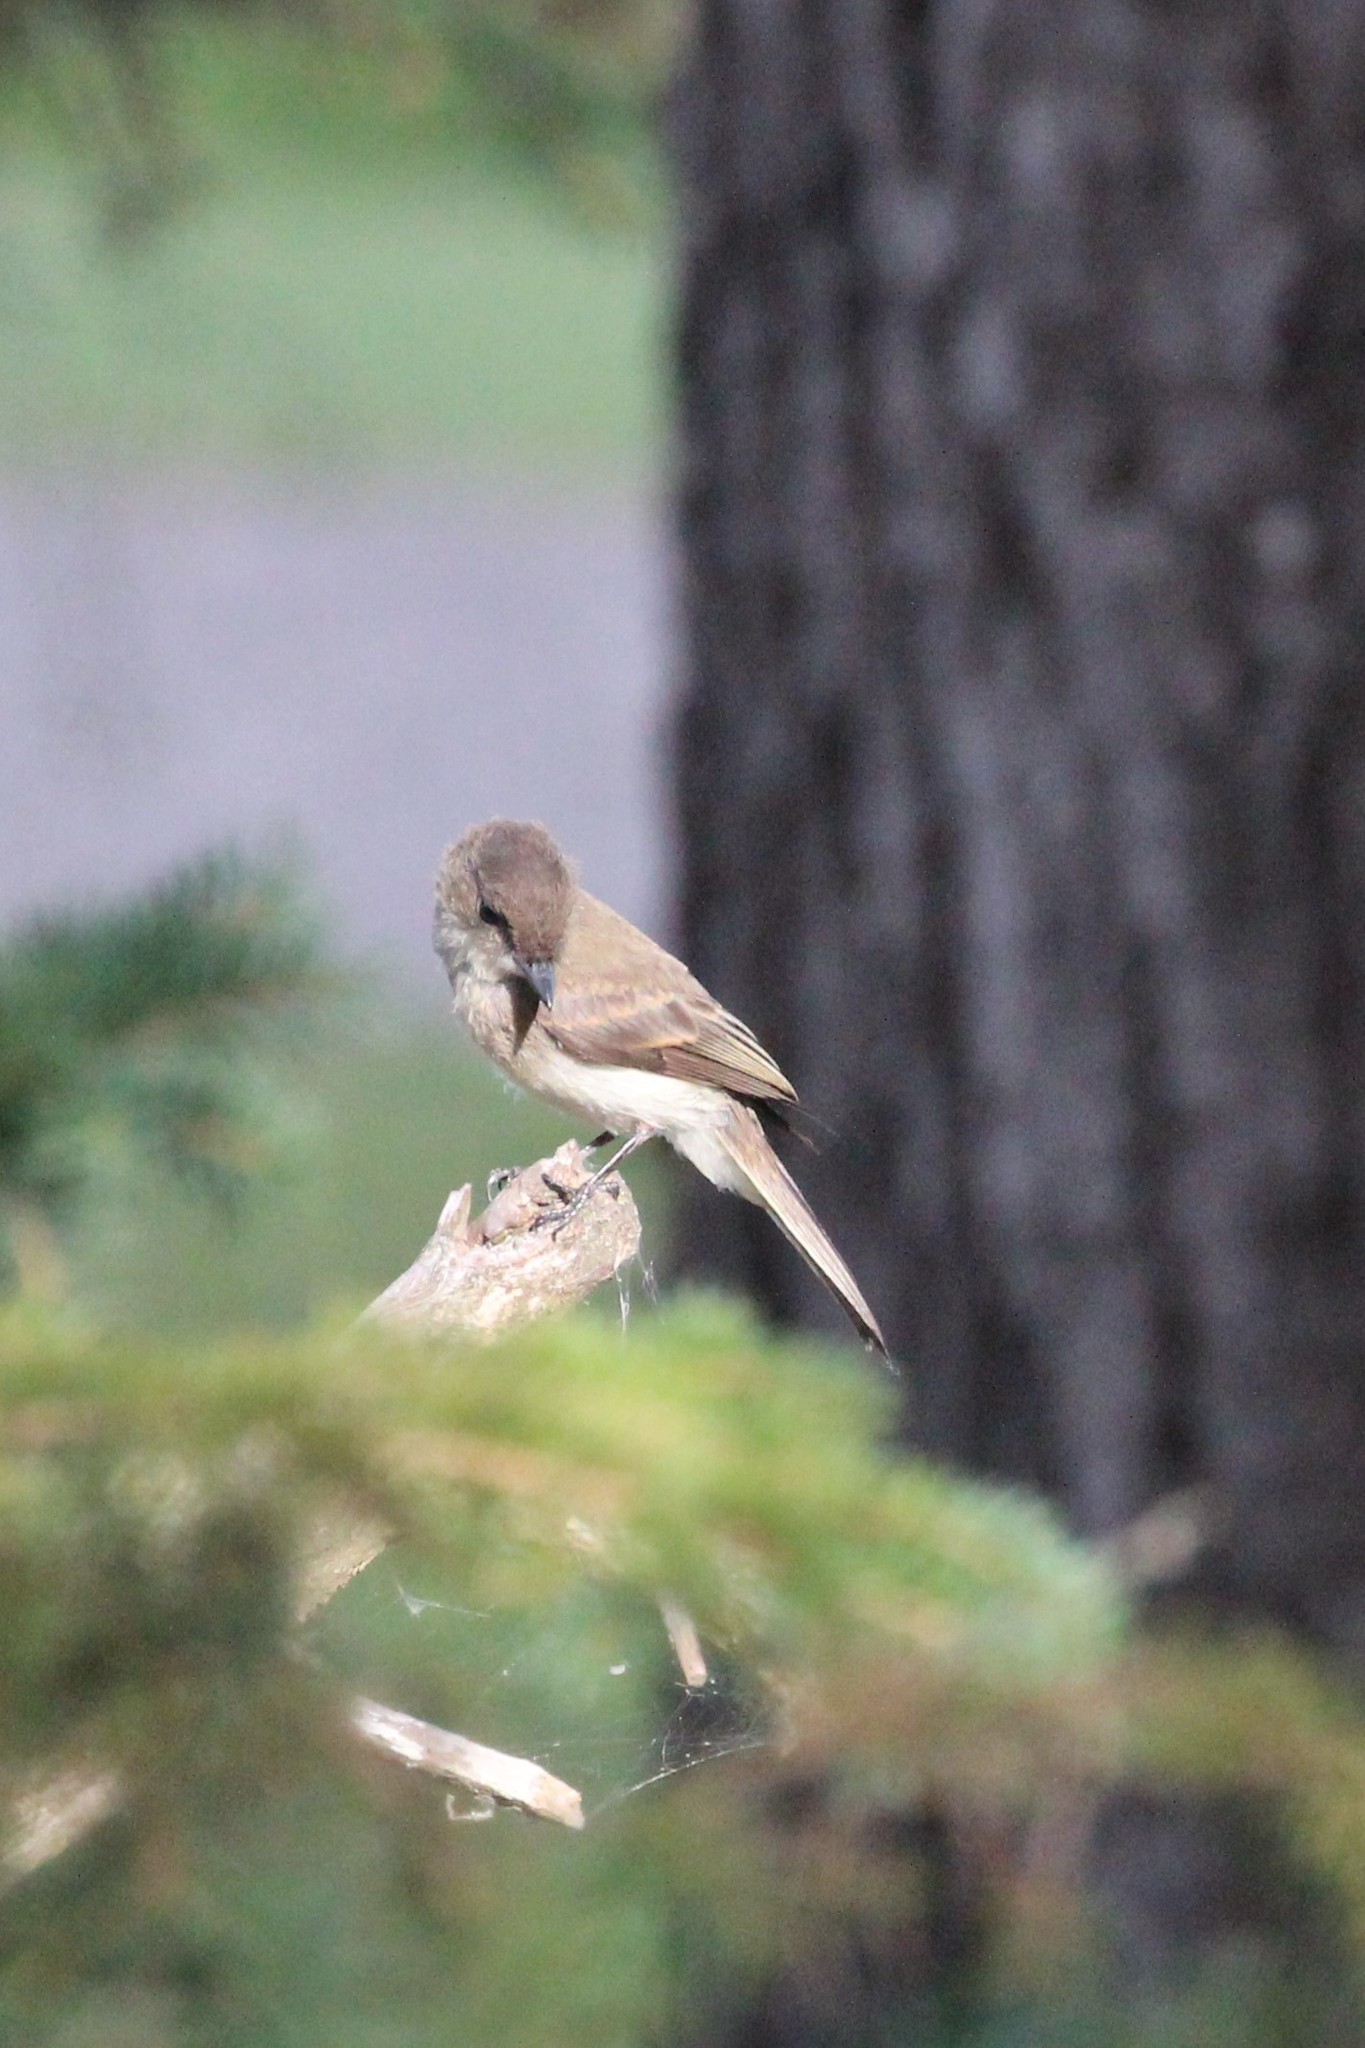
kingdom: Animalia
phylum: Chordata
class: Aves
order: Passeriformes
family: Tyrannidae
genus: Sayornis
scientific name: Sayornis phoebe
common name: Eastern phoebe
